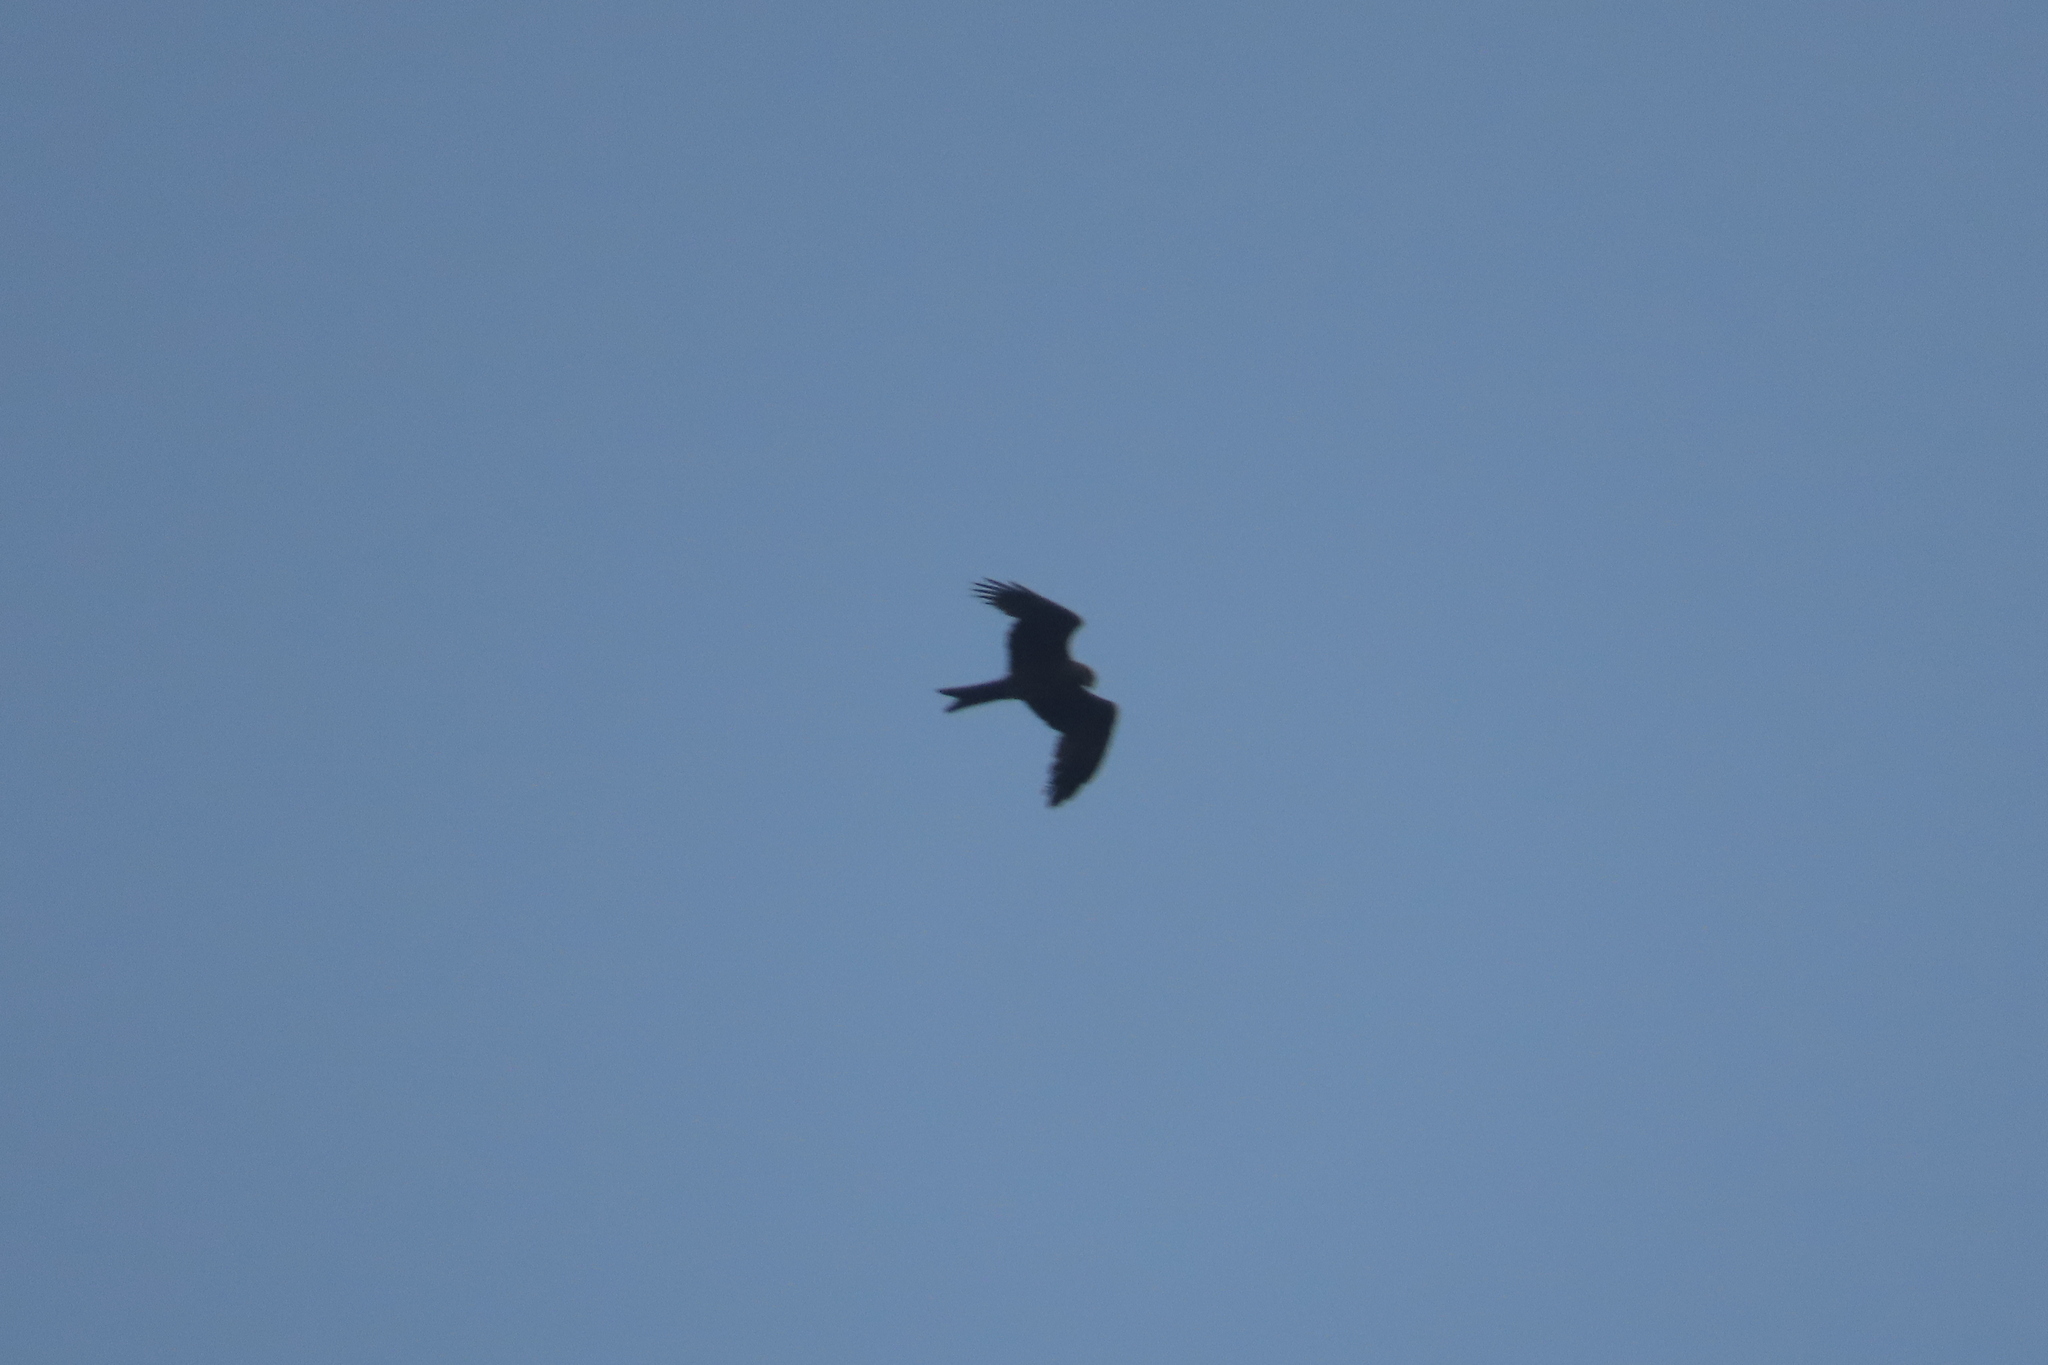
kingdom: Animalia
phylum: Chordata
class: Aves
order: Accipitriformes
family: Accipitridae
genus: Milvus
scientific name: Milvus migrans
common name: Black kite
